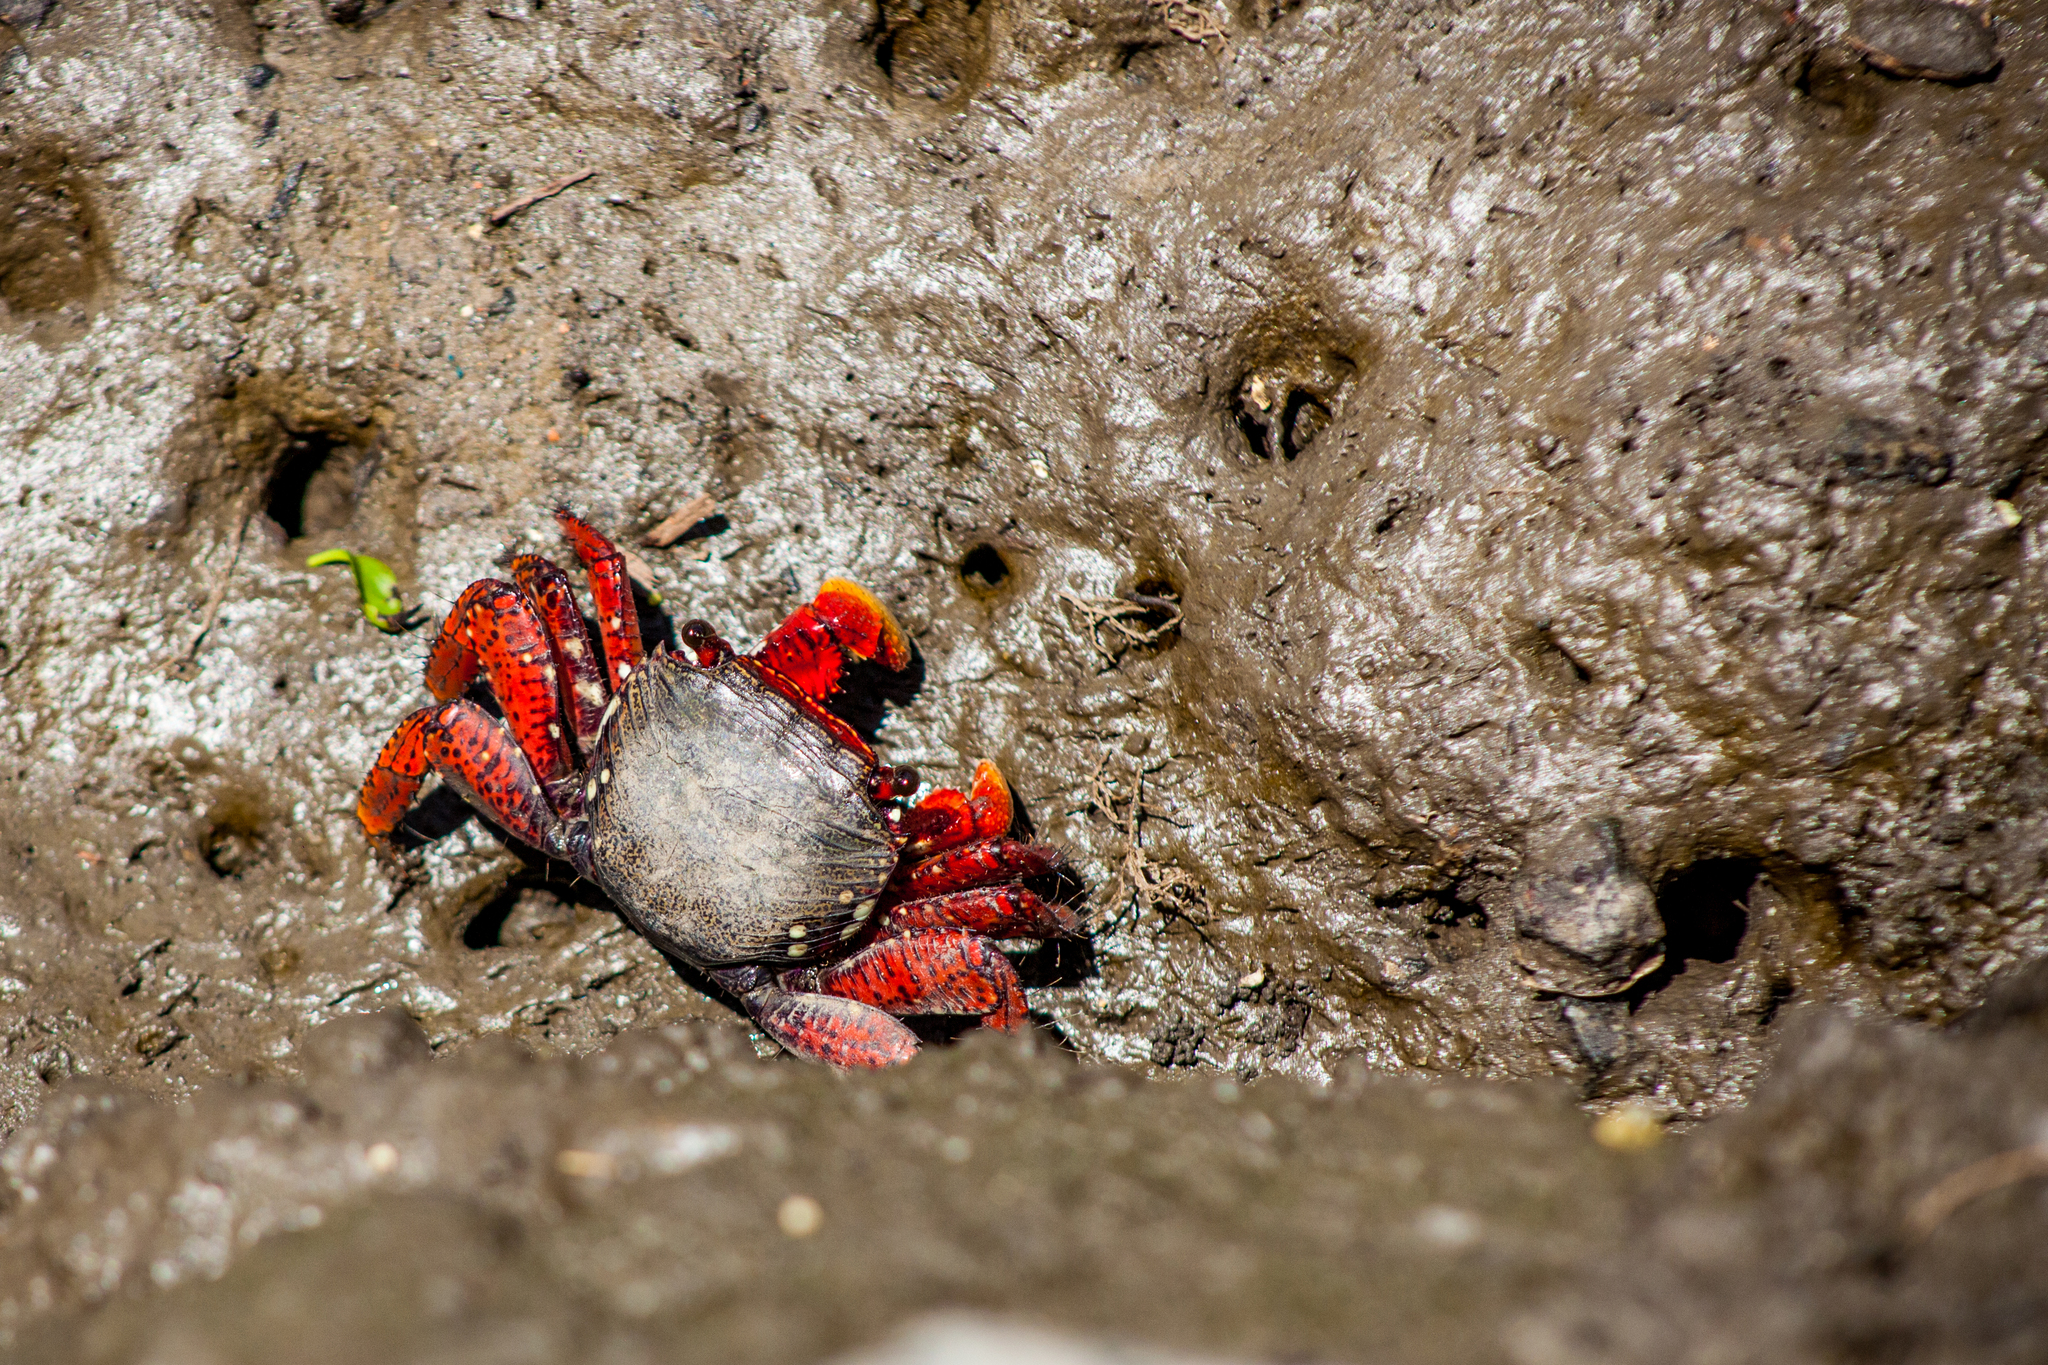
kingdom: Animalia
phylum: Arthropoda
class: Malacostraca
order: Decapoda
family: Grapsidae
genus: Goniopsis
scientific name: Goniopsis cruentata
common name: Mangrove crab
